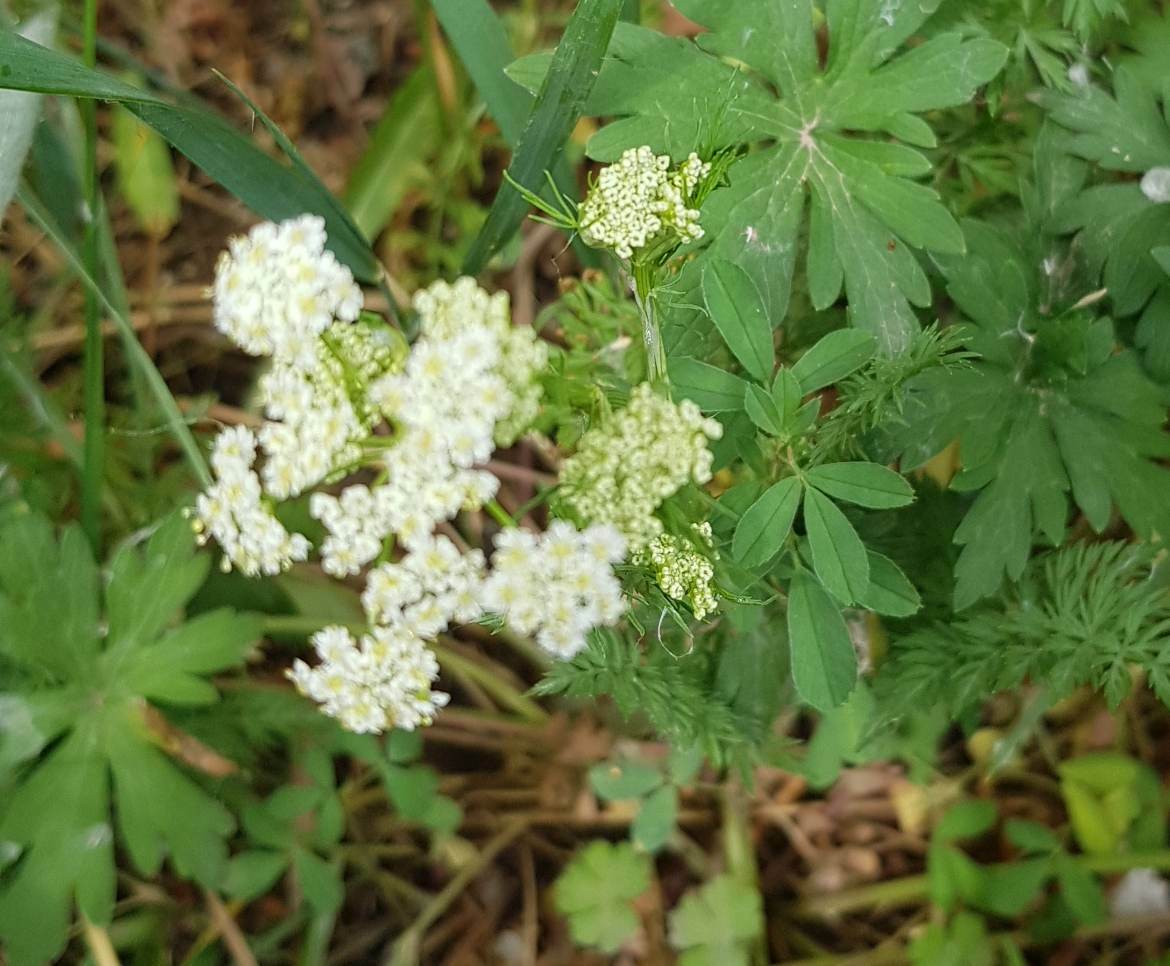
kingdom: Plantae
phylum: Tracheophyta
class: Magnoliopsida
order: Apiales
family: Apiaceae
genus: Peucedanum
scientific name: Peucedanum vaginatum
